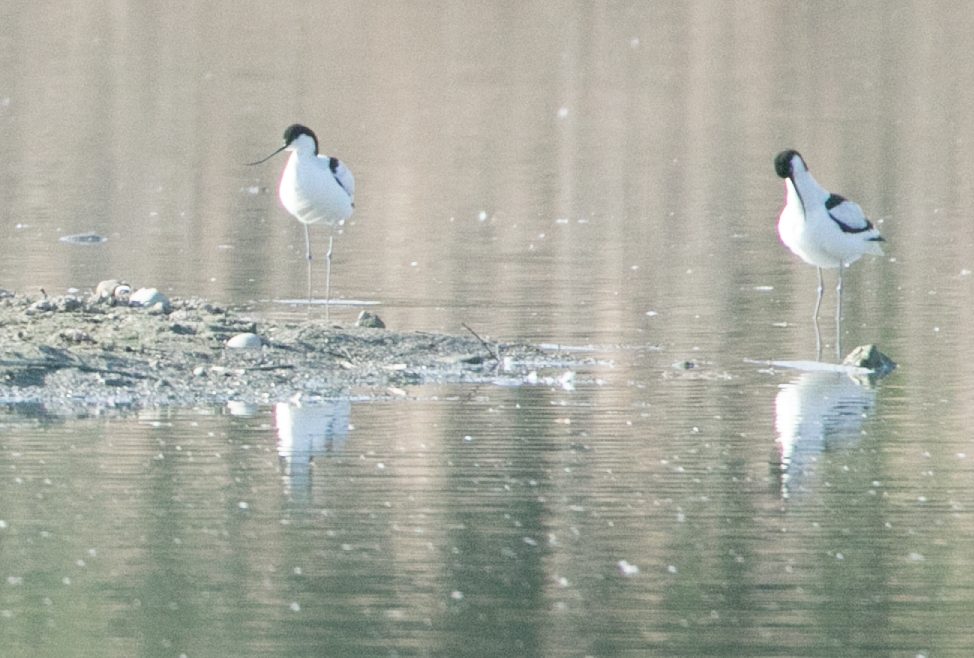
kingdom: Animalia
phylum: Chordata
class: Aves
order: Charadriiformes
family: Recurvirostridae
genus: Recurvirostra
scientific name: Recurvirostra avosetta
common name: Pied avocet
